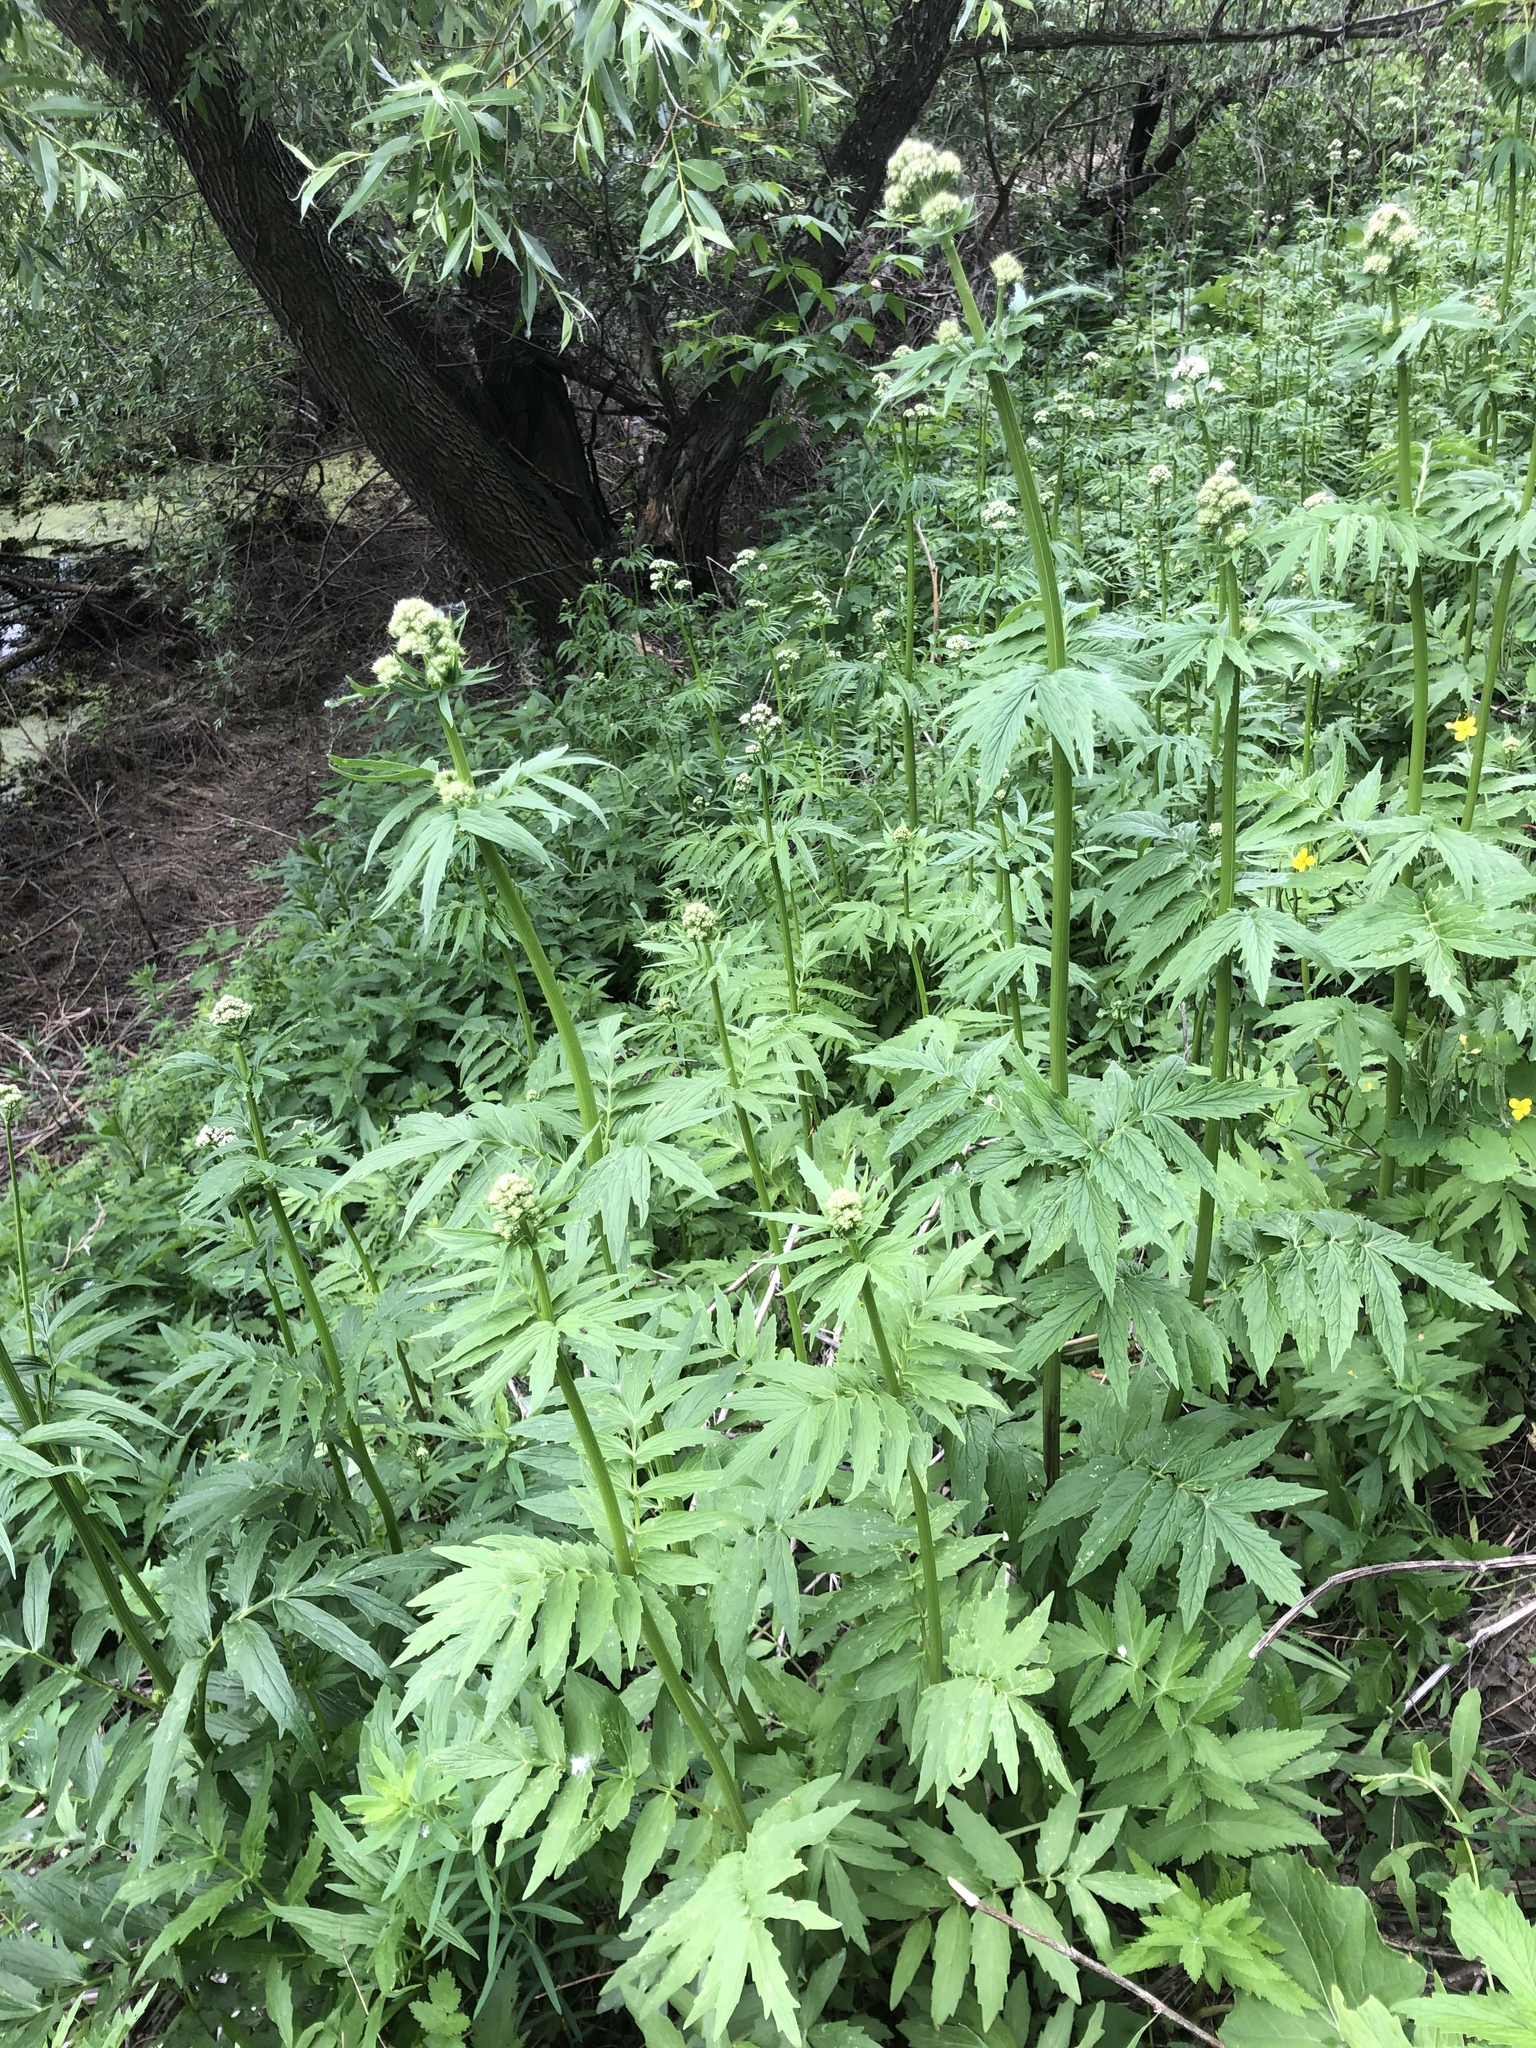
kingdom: Plantae
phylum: Tracheophyta
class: Magnoliopsida
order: Dipsacales
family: Caprifoliaceae
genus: Valeriana
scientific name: Valeriana officinalis
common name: Common valerian
